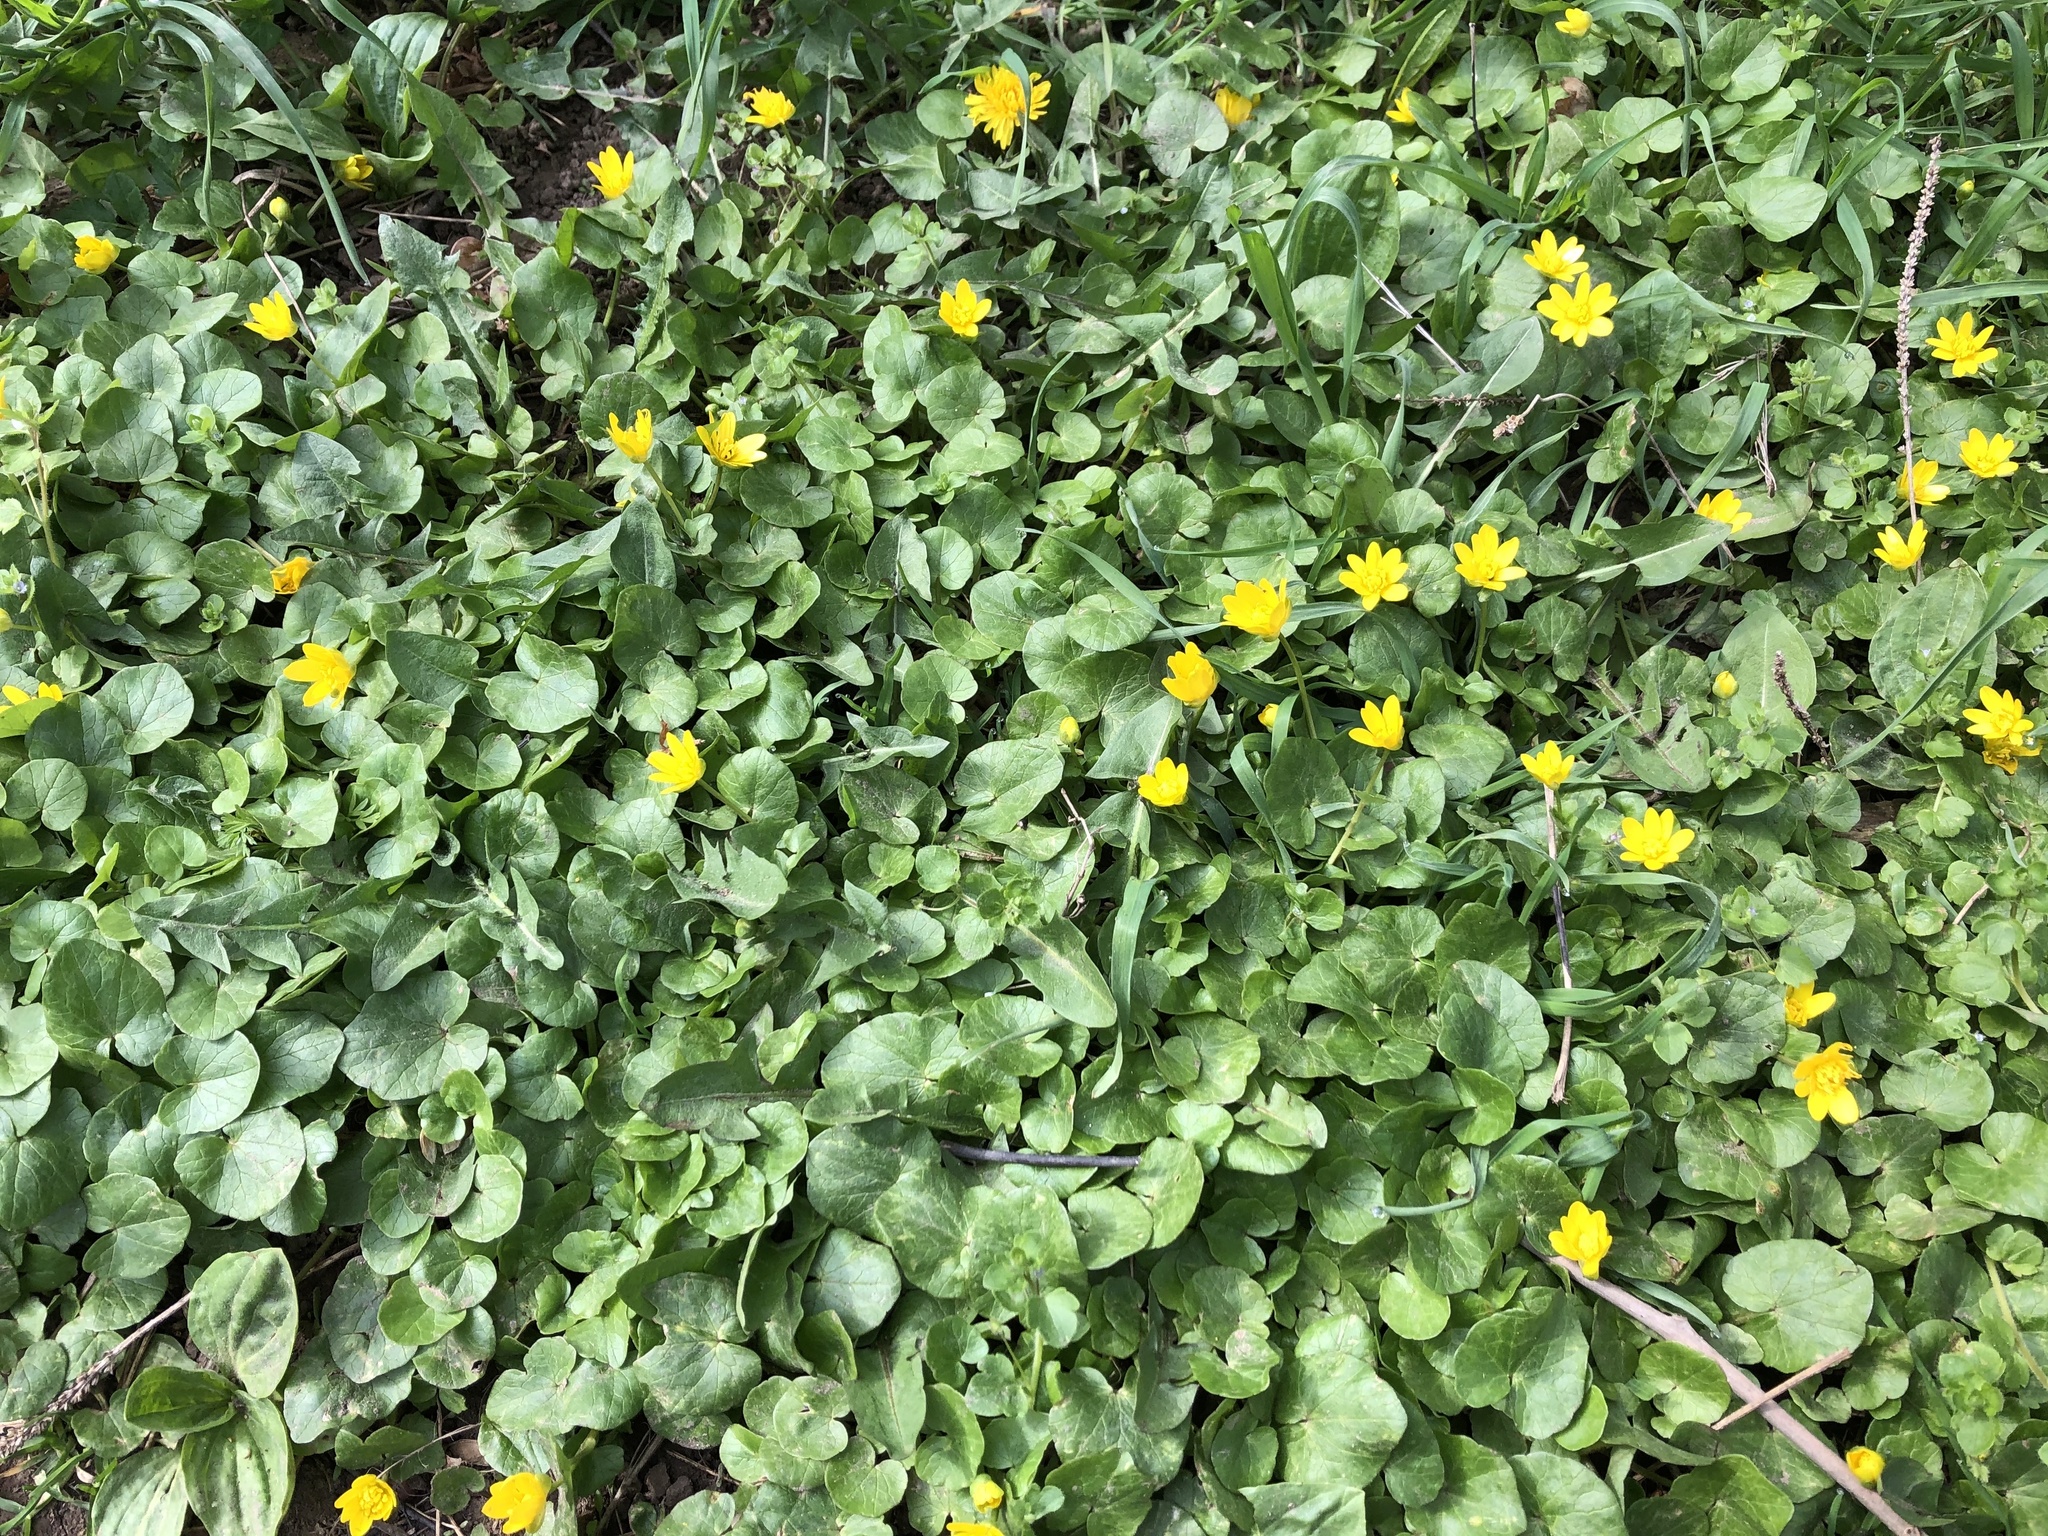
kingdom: Plantae
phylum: Tracheophyta
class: Magnoliopsida
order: Ranunculales
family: Ranunculaceae
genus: Ficaria
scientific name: Ficaria verna
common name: Lesser celandine
